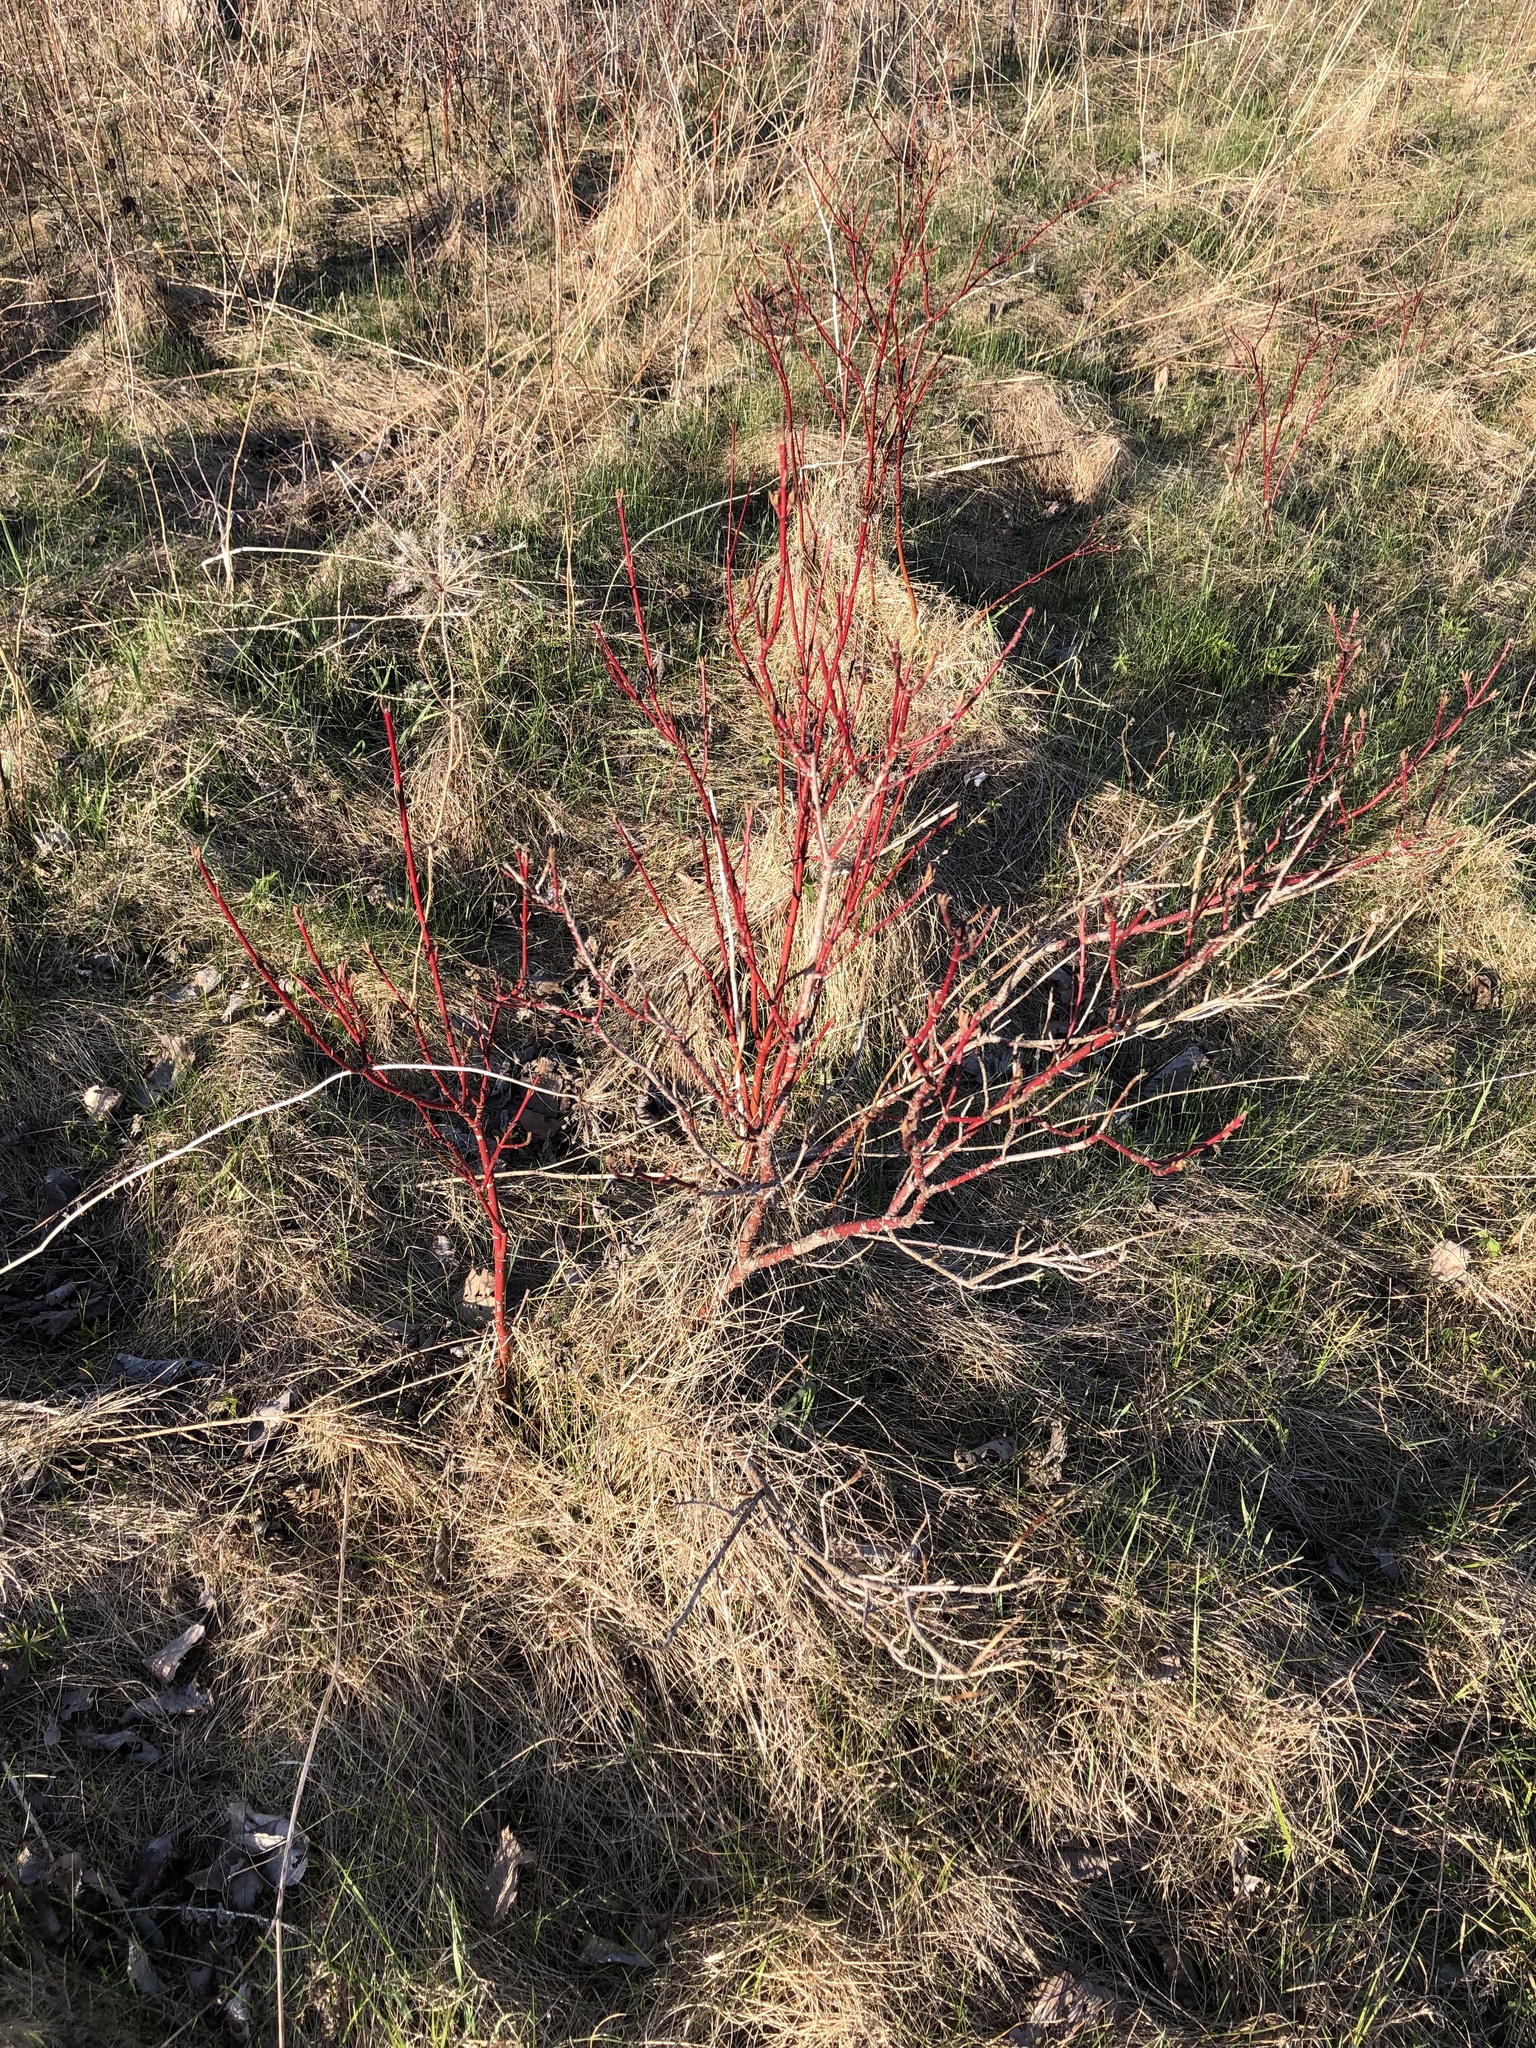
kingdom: Plantae
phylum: Tracheophyta
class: Magnoliopsida
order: Cornales
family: Cornaceae
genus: Cornus
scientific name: Cornus sericea
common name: Red-osier dogwood
